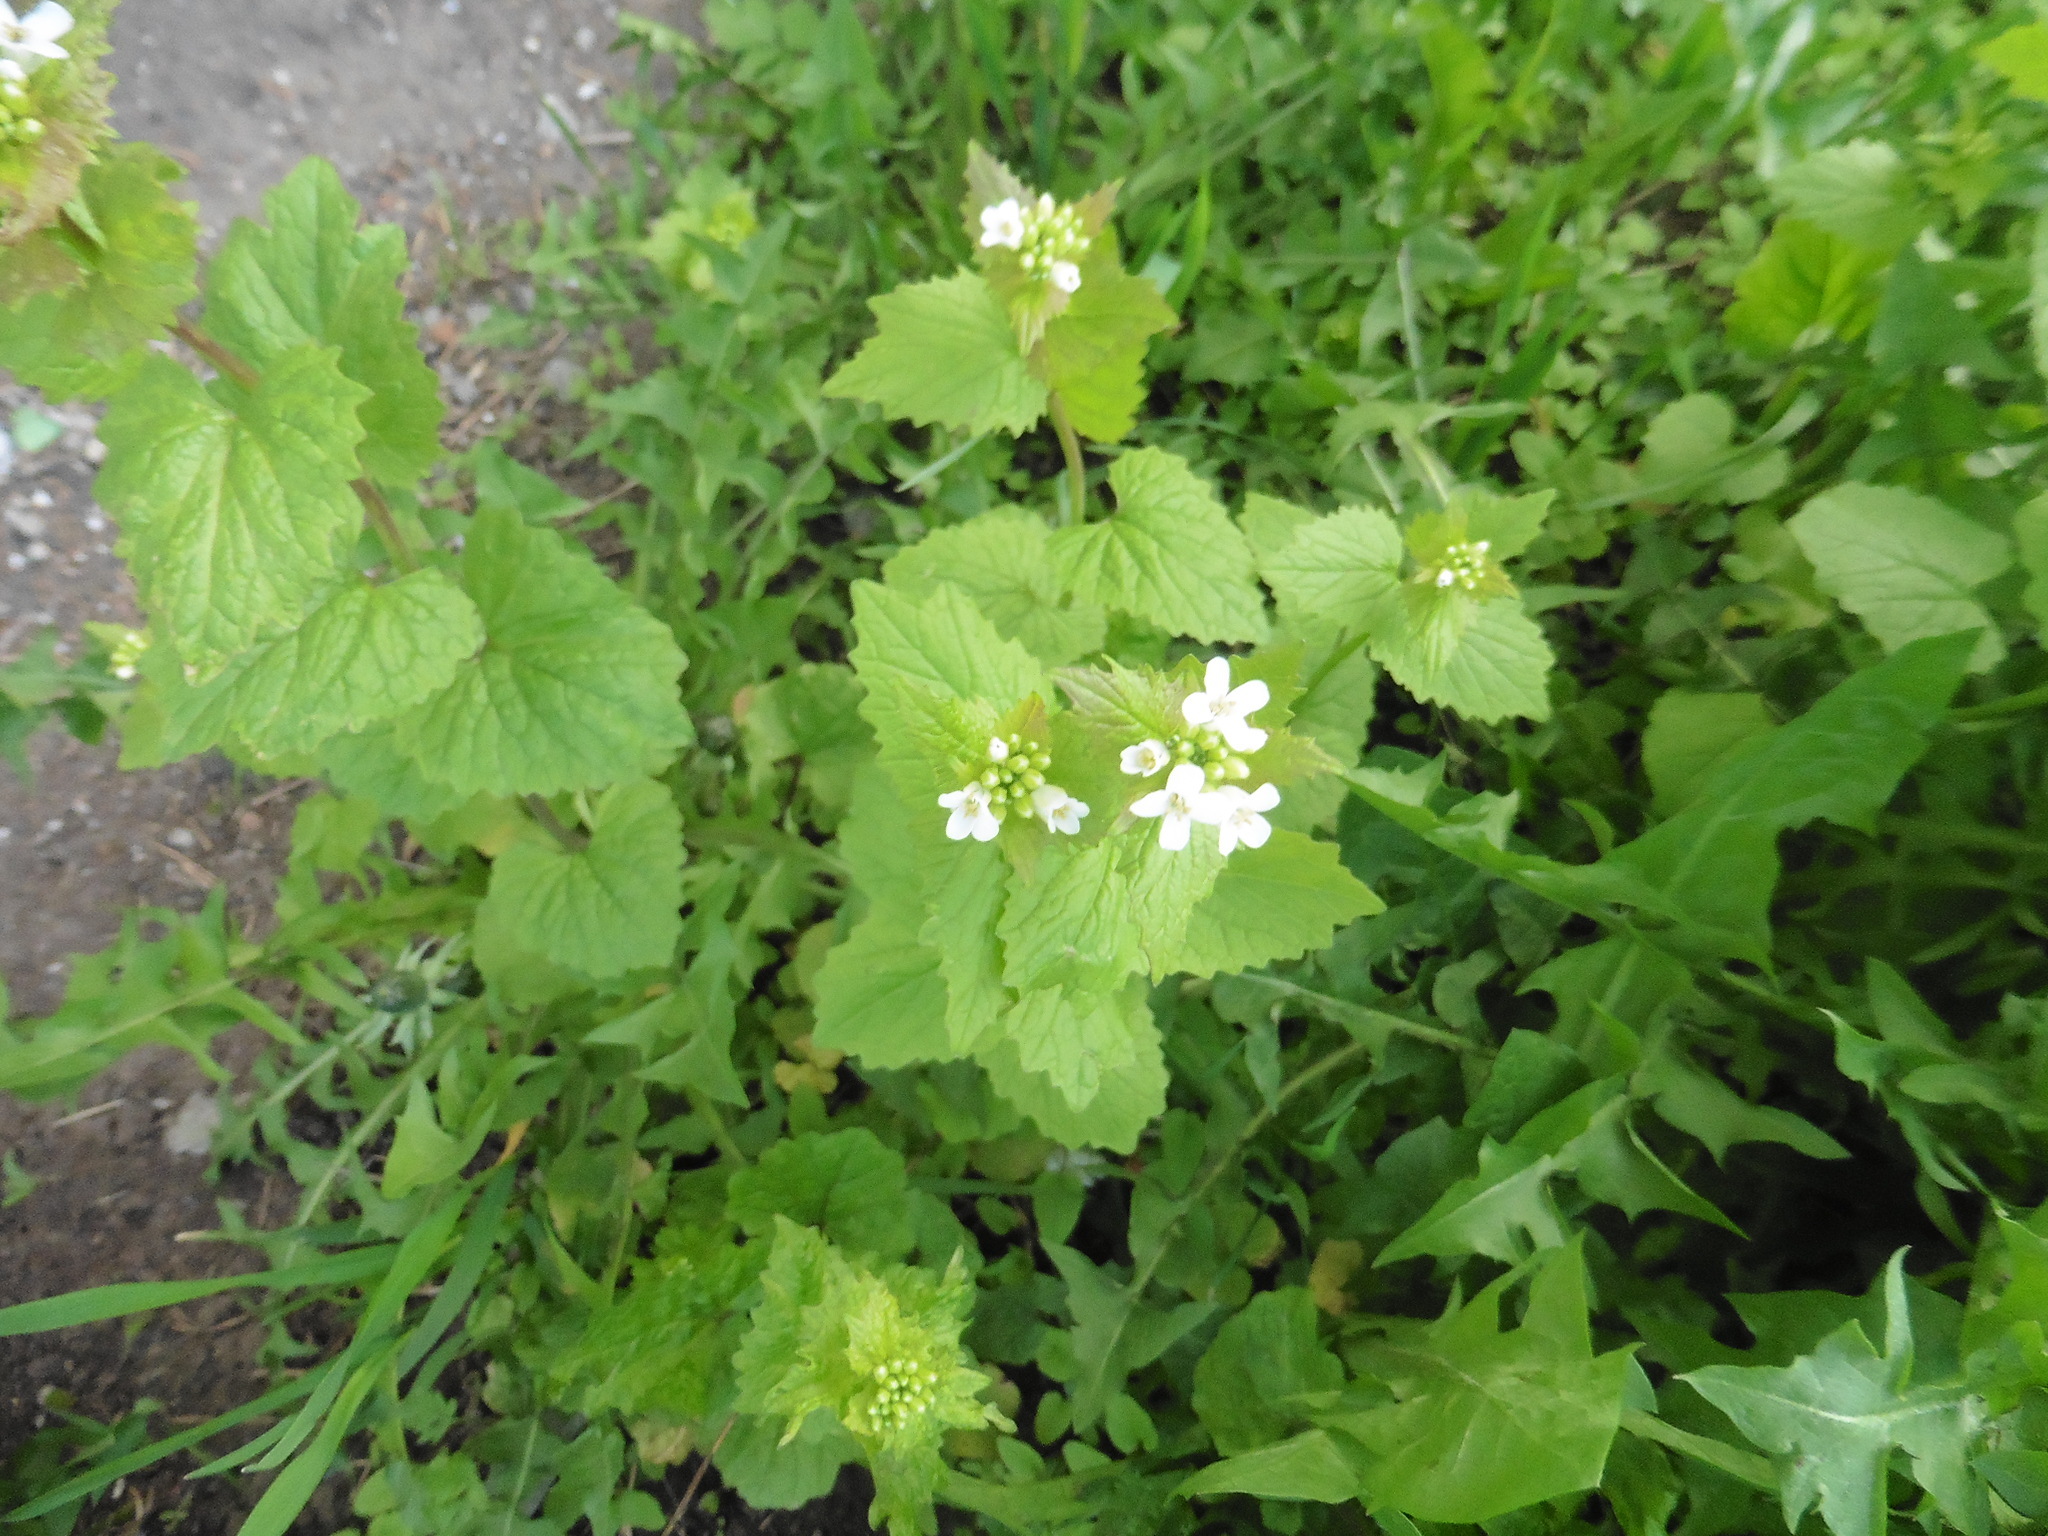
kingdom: Plantae
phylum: Tracheophyta
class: Magnoliopsida
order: Brassicales
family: Brassicaceae
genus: Alliaria
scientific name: Alliaria petiolata
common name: Garlic mustard
